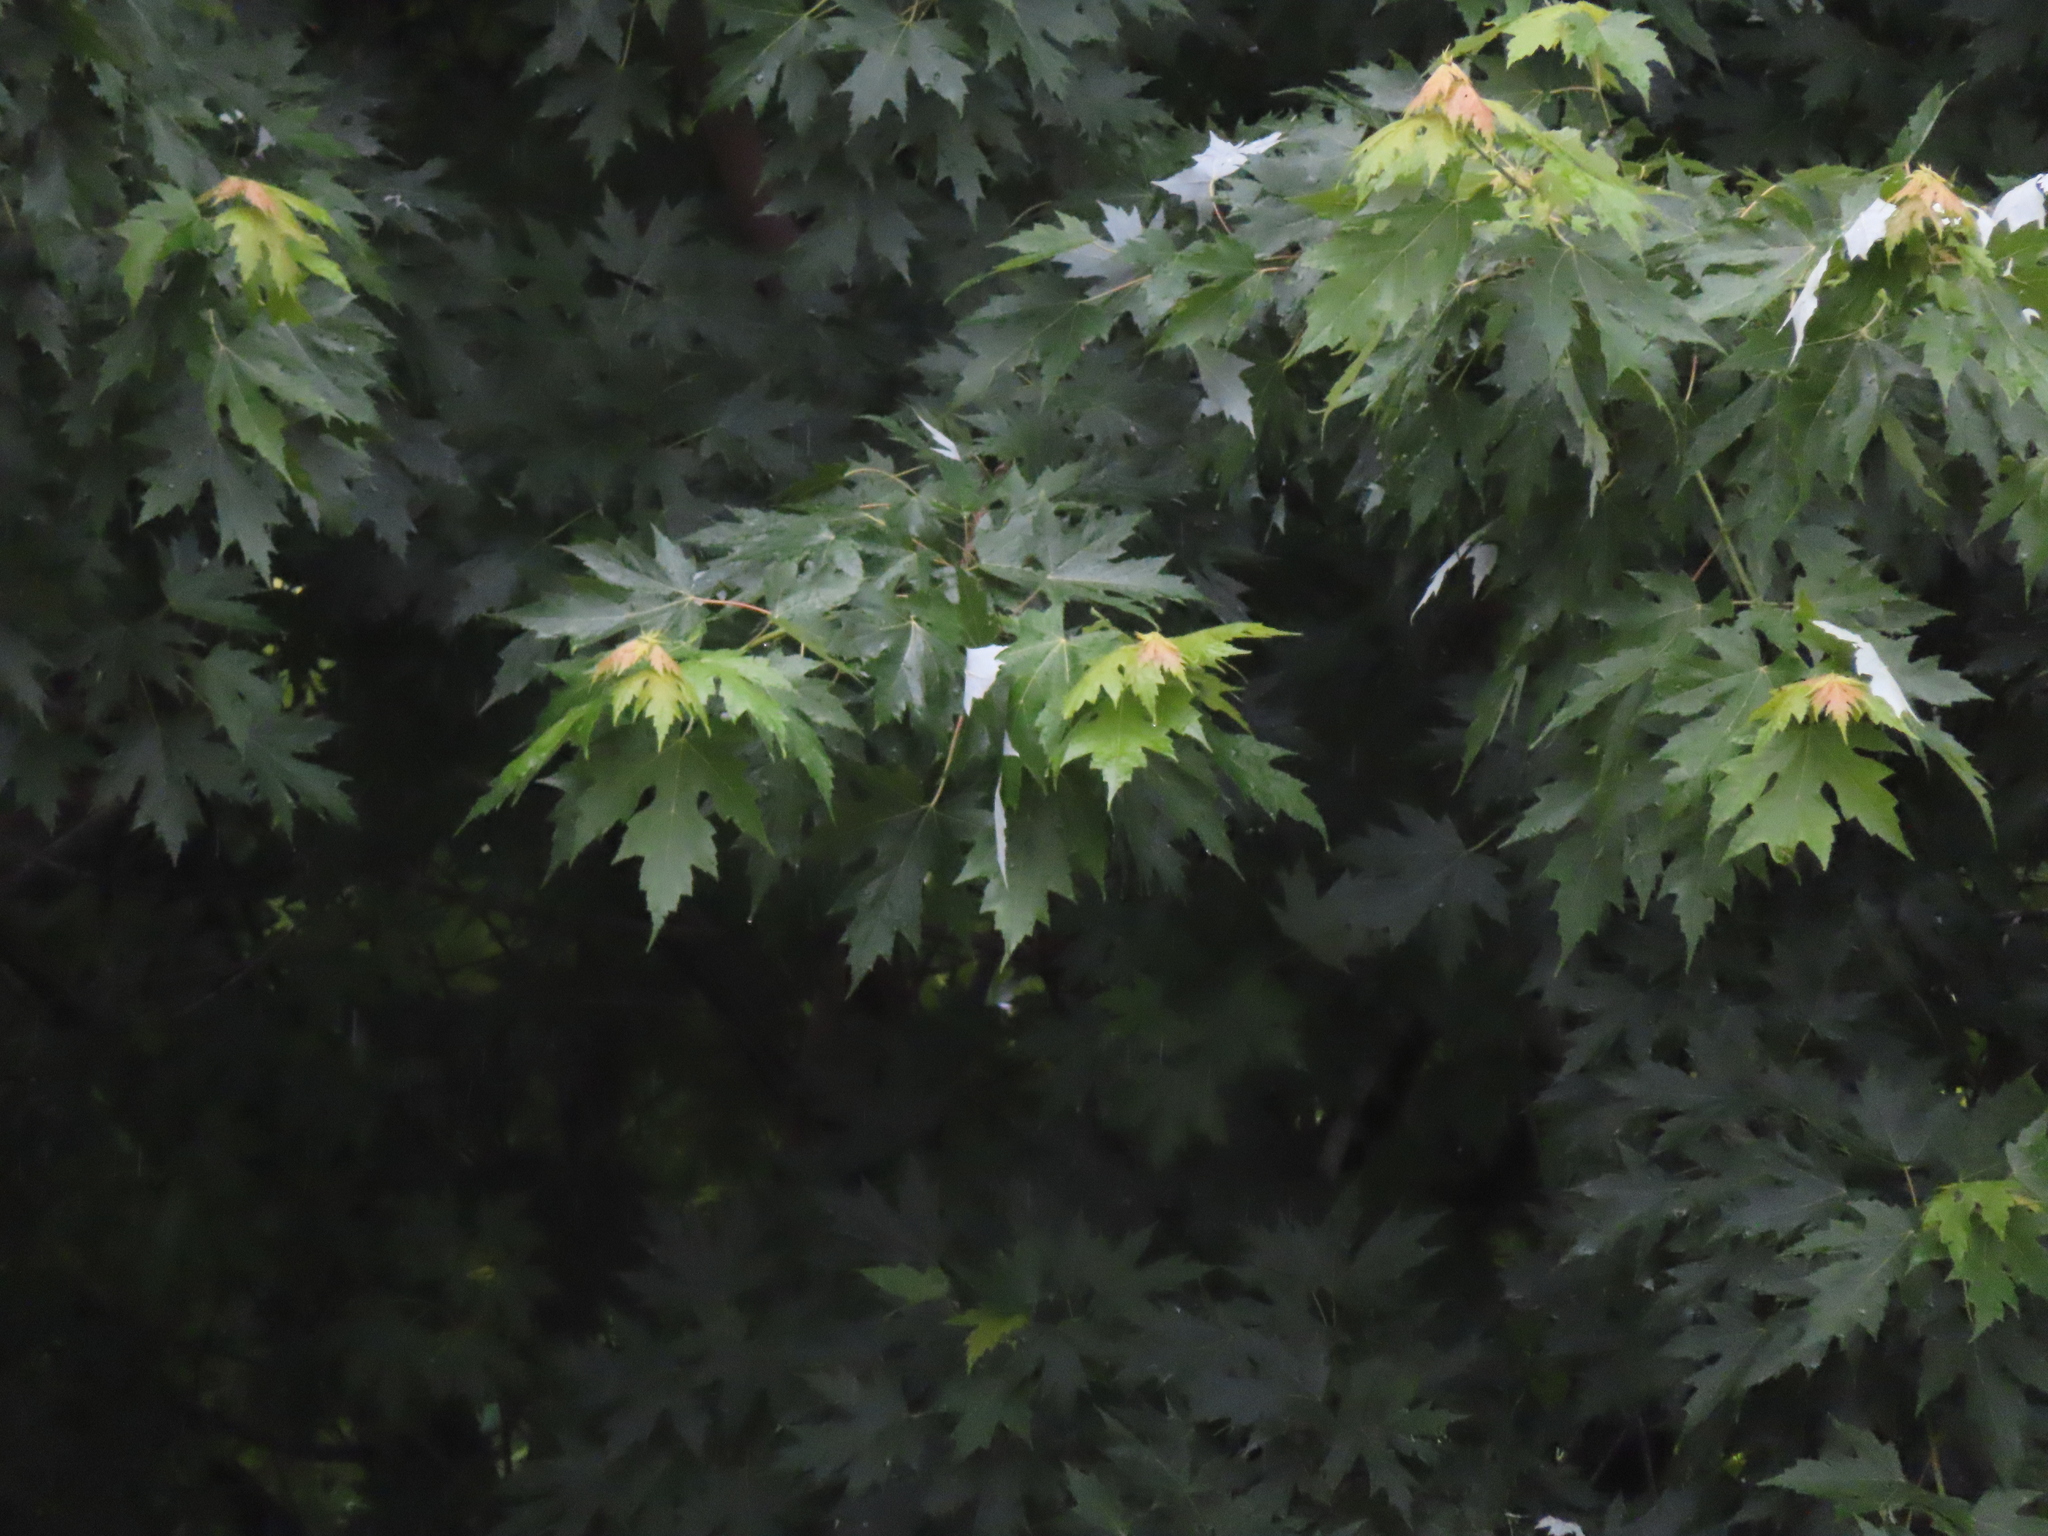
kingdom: Plantae
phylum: Tracheophyta
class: Magnoliopsida
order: Sapindales
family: Sapindaceae
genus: Acer
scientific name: Acer saccharinum
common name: Silver maple
